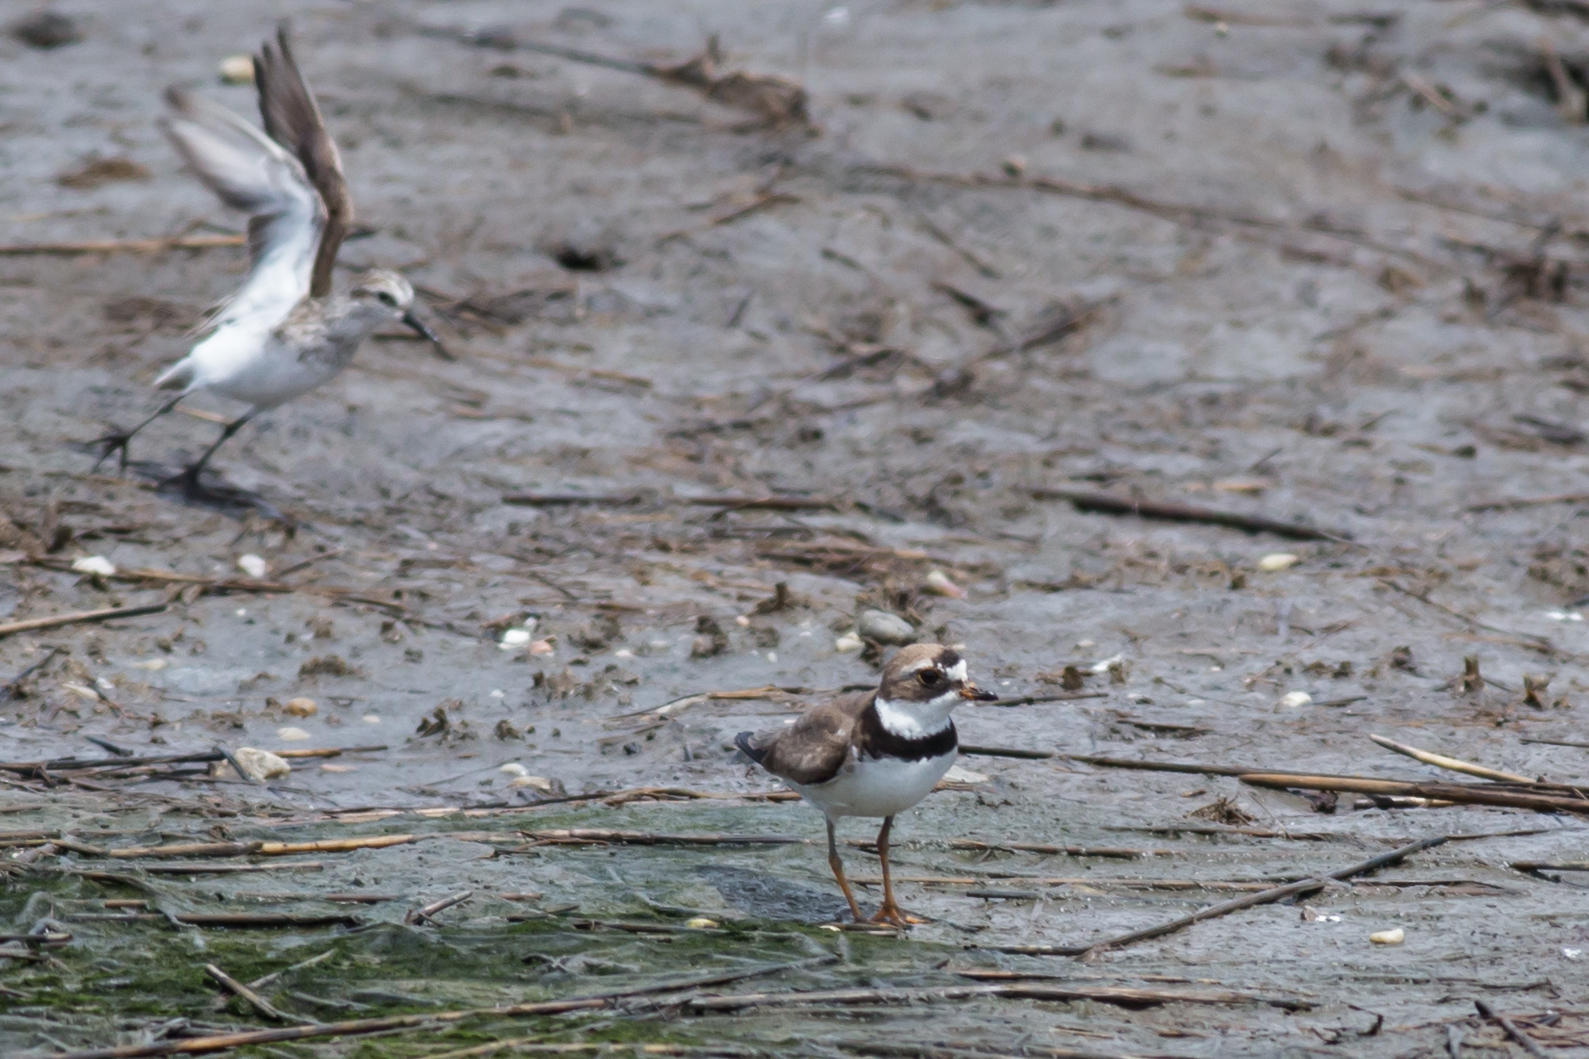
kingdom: Animalia
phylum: Chordata
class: Aves
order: Charadriiformes
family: Charadriidae
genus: Charadrius
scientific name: Charadrius semipalmatus
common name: Semipalmated plover
